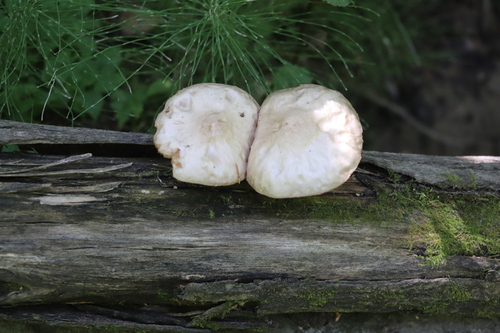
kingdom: Fungi
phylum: Basidiomycota
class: Agaricomycetes
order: Agaricales
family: Pluteaceae
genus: Pluteus
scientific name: Pluteus
